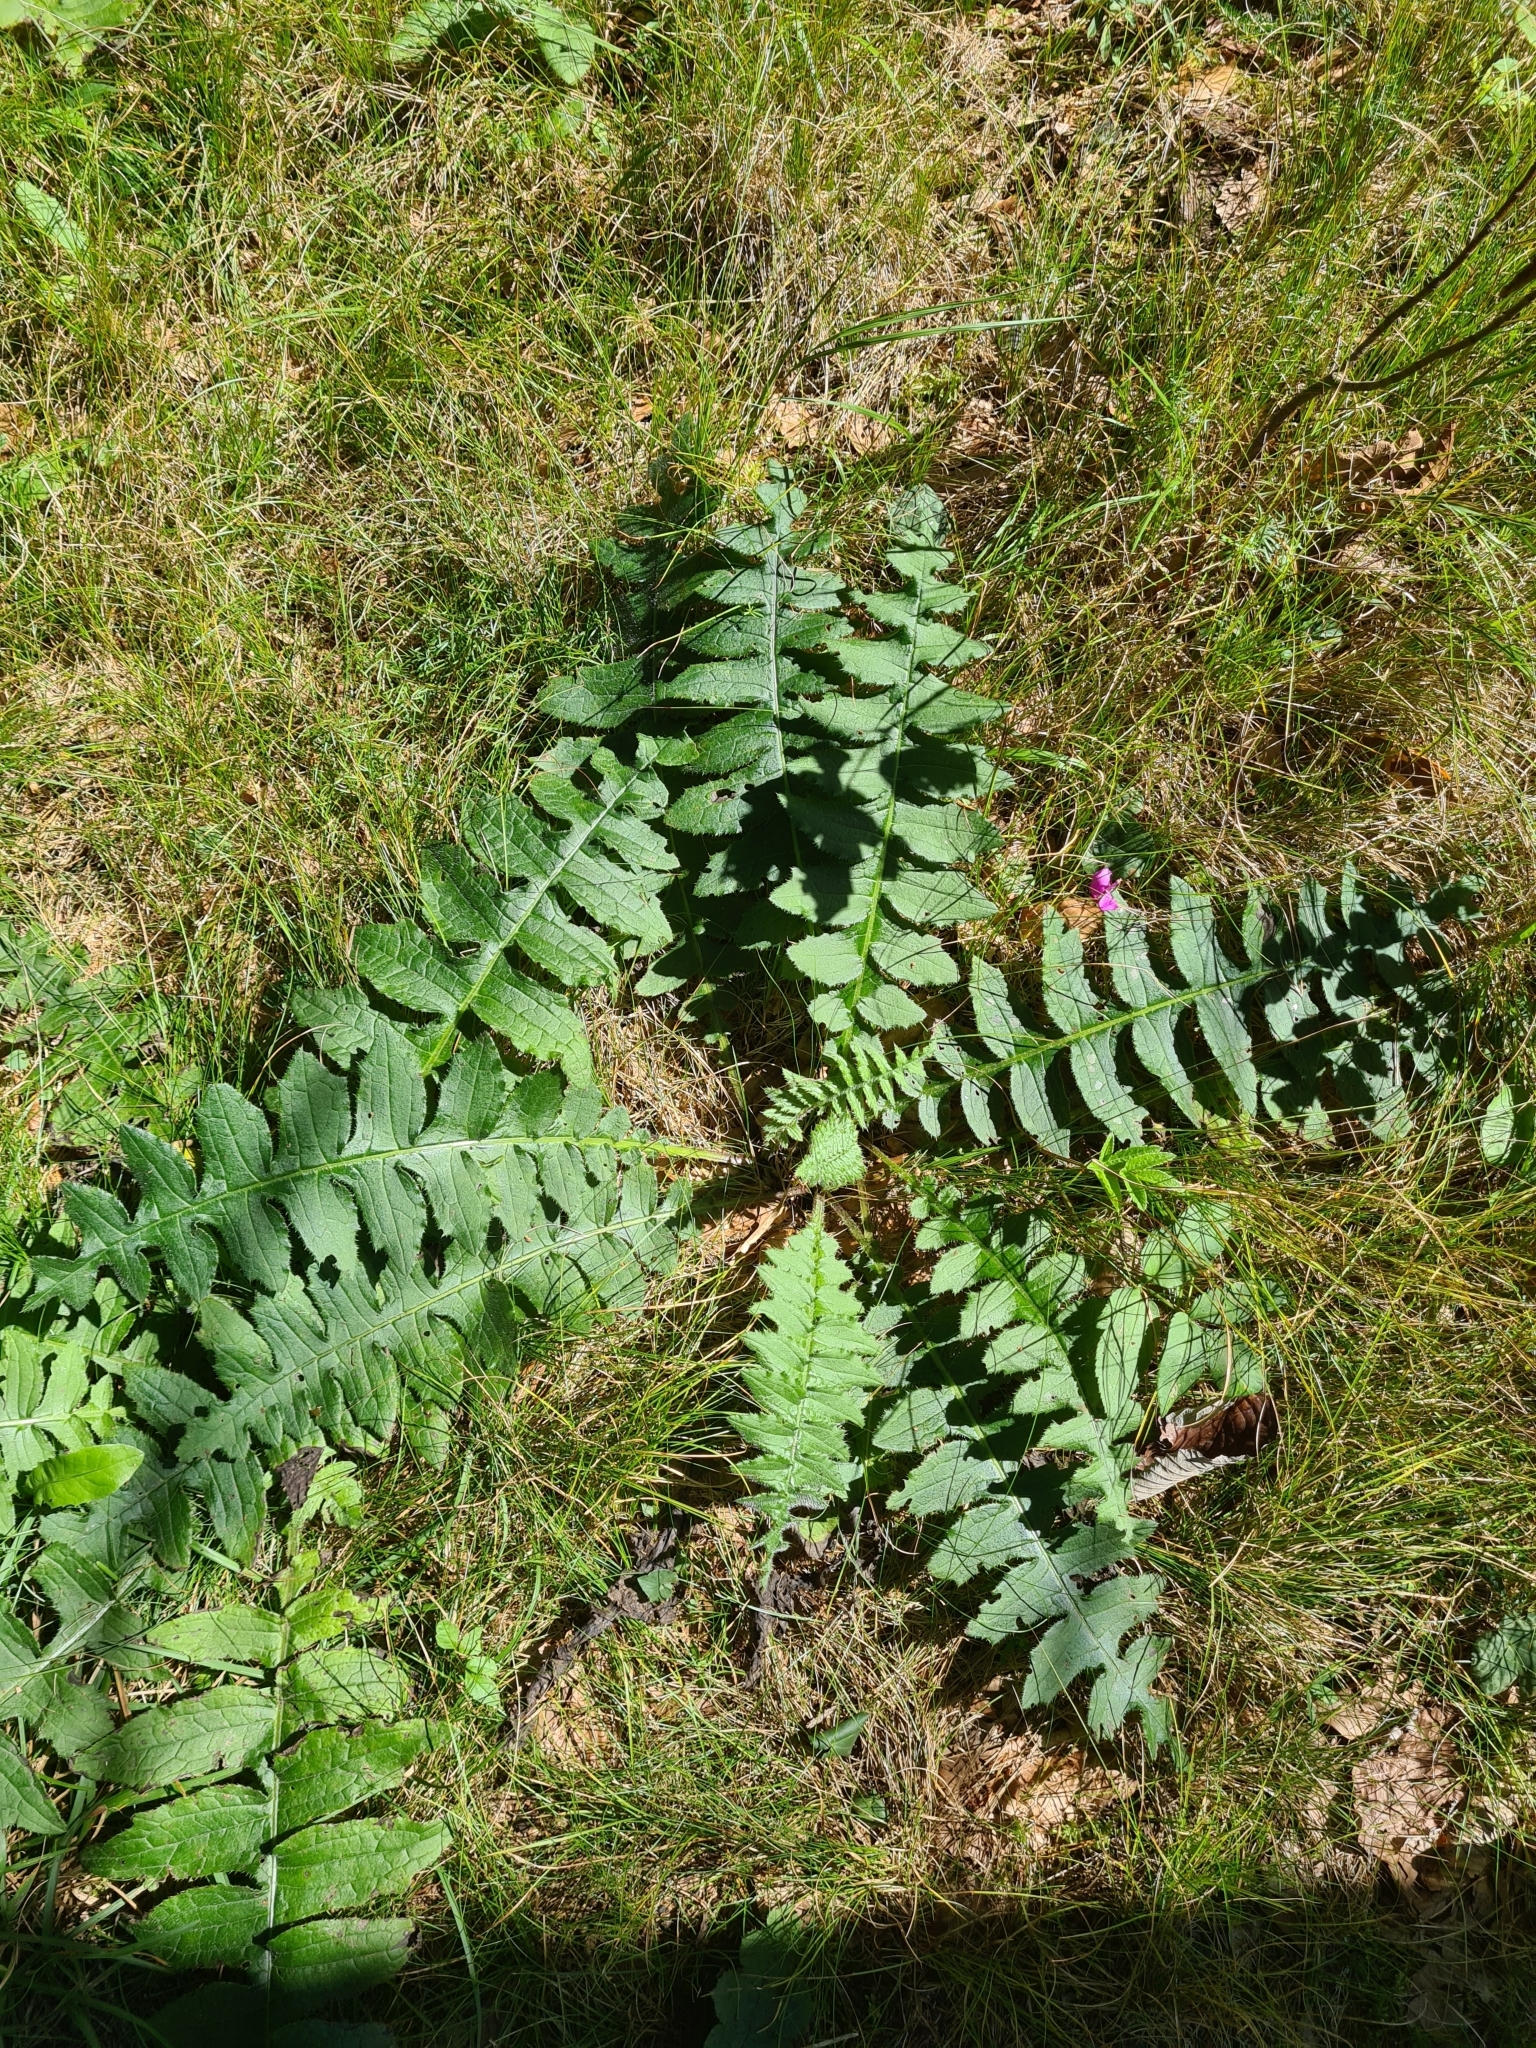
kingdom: Plantae
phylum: Tracheophyta
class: Magnoliopsida
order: Asterales
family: Asteraceae
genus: Cirsium
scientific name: Cirsium erisithales
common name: Yellow thistle
